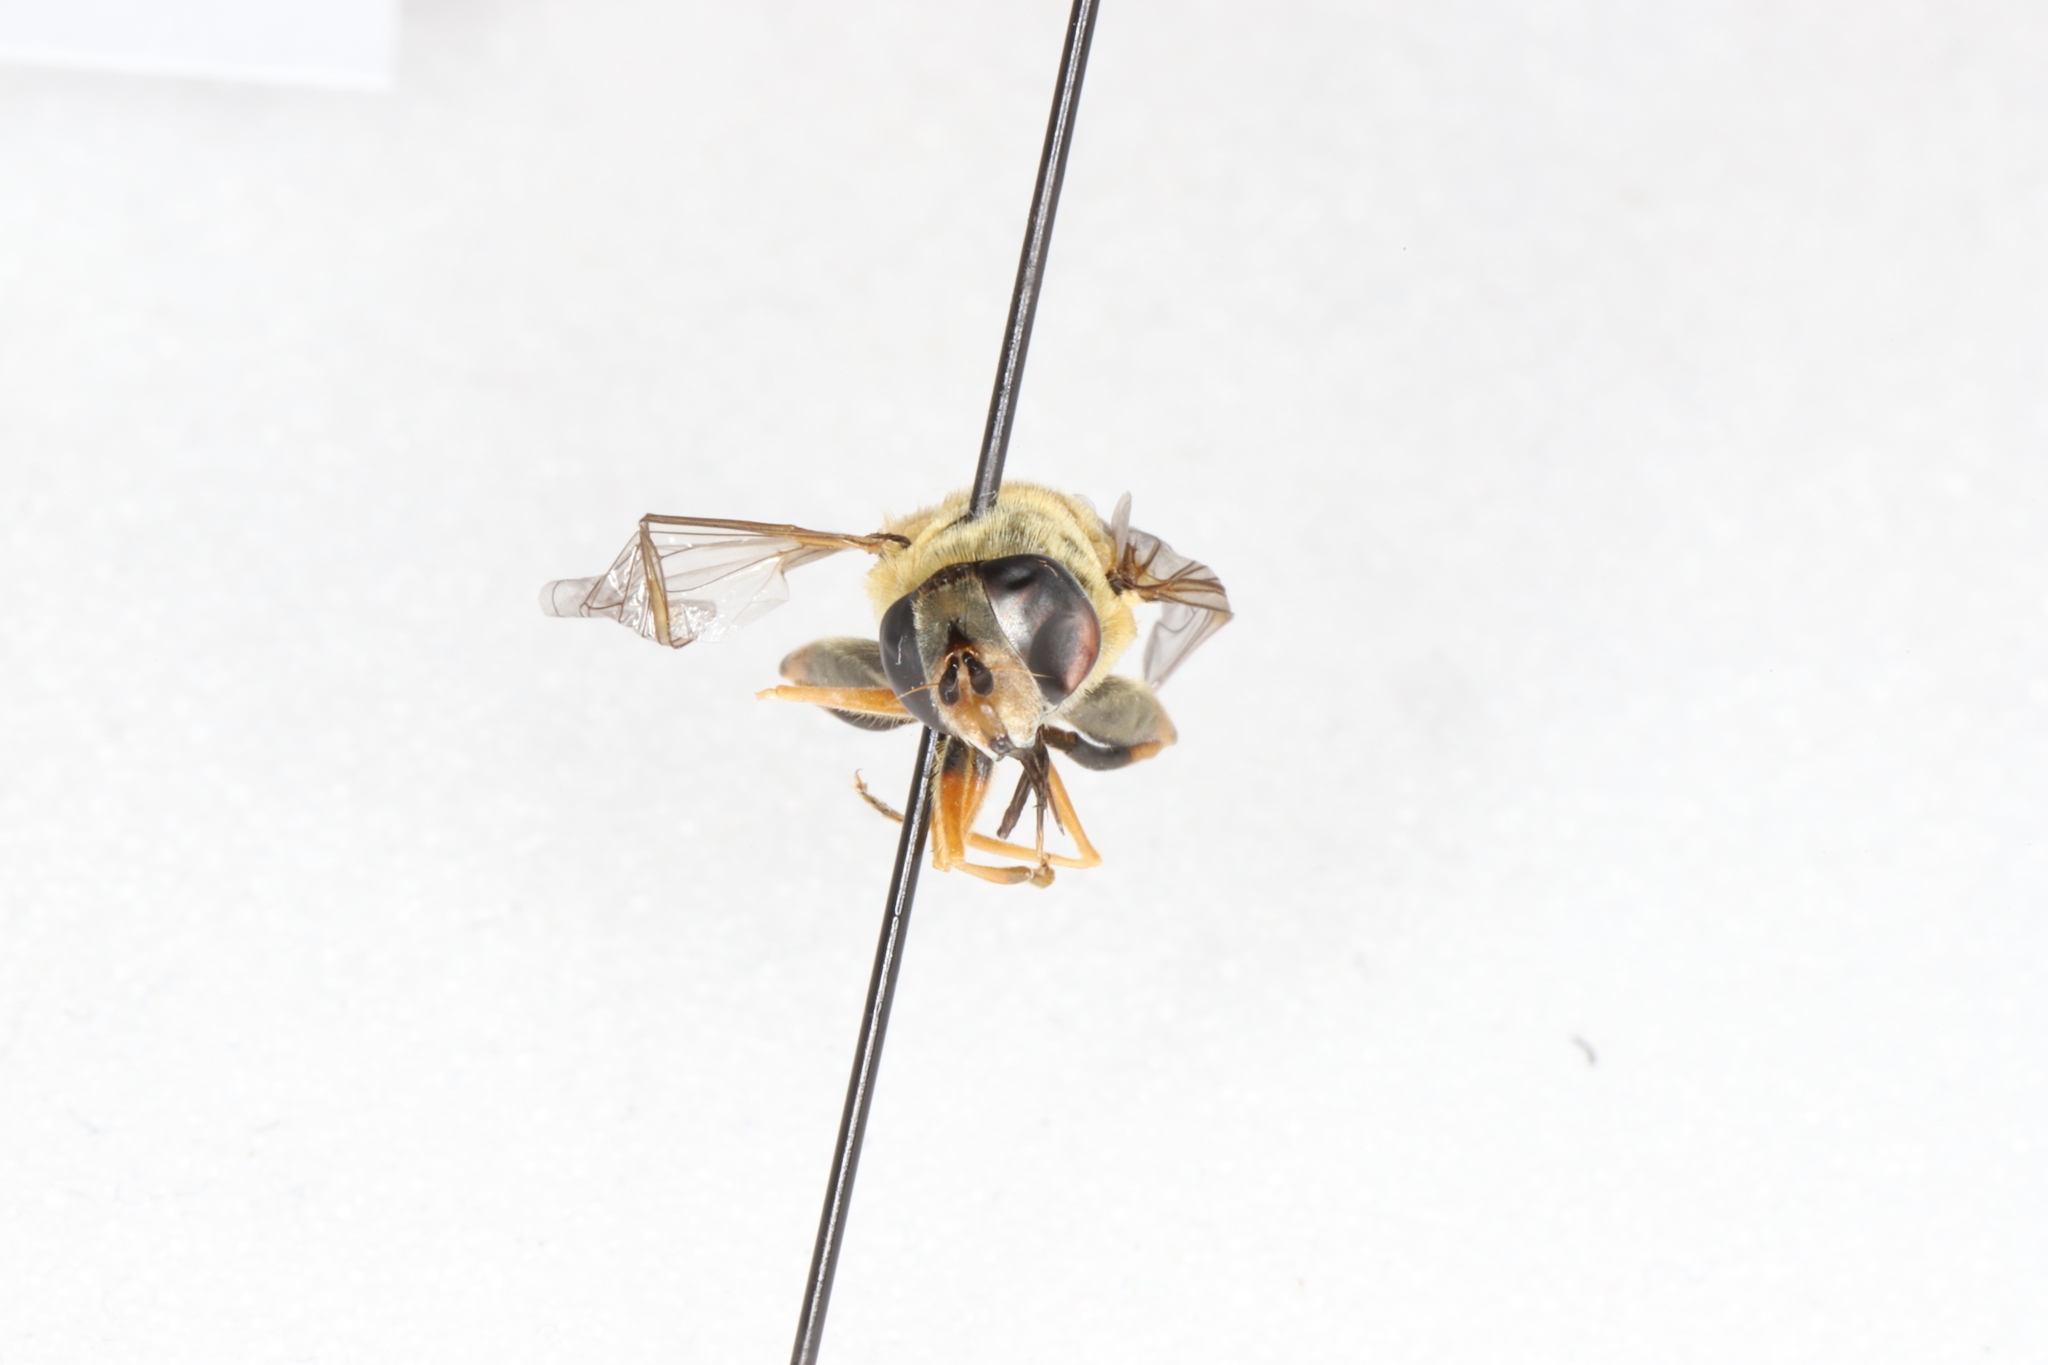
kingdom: Animalia
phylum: Arthropoda
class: Insecta
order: Diptera
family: Syrphidae
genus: Helophilus
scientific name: Helophilus fasciatus
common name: Narrow-headed marsh fly
